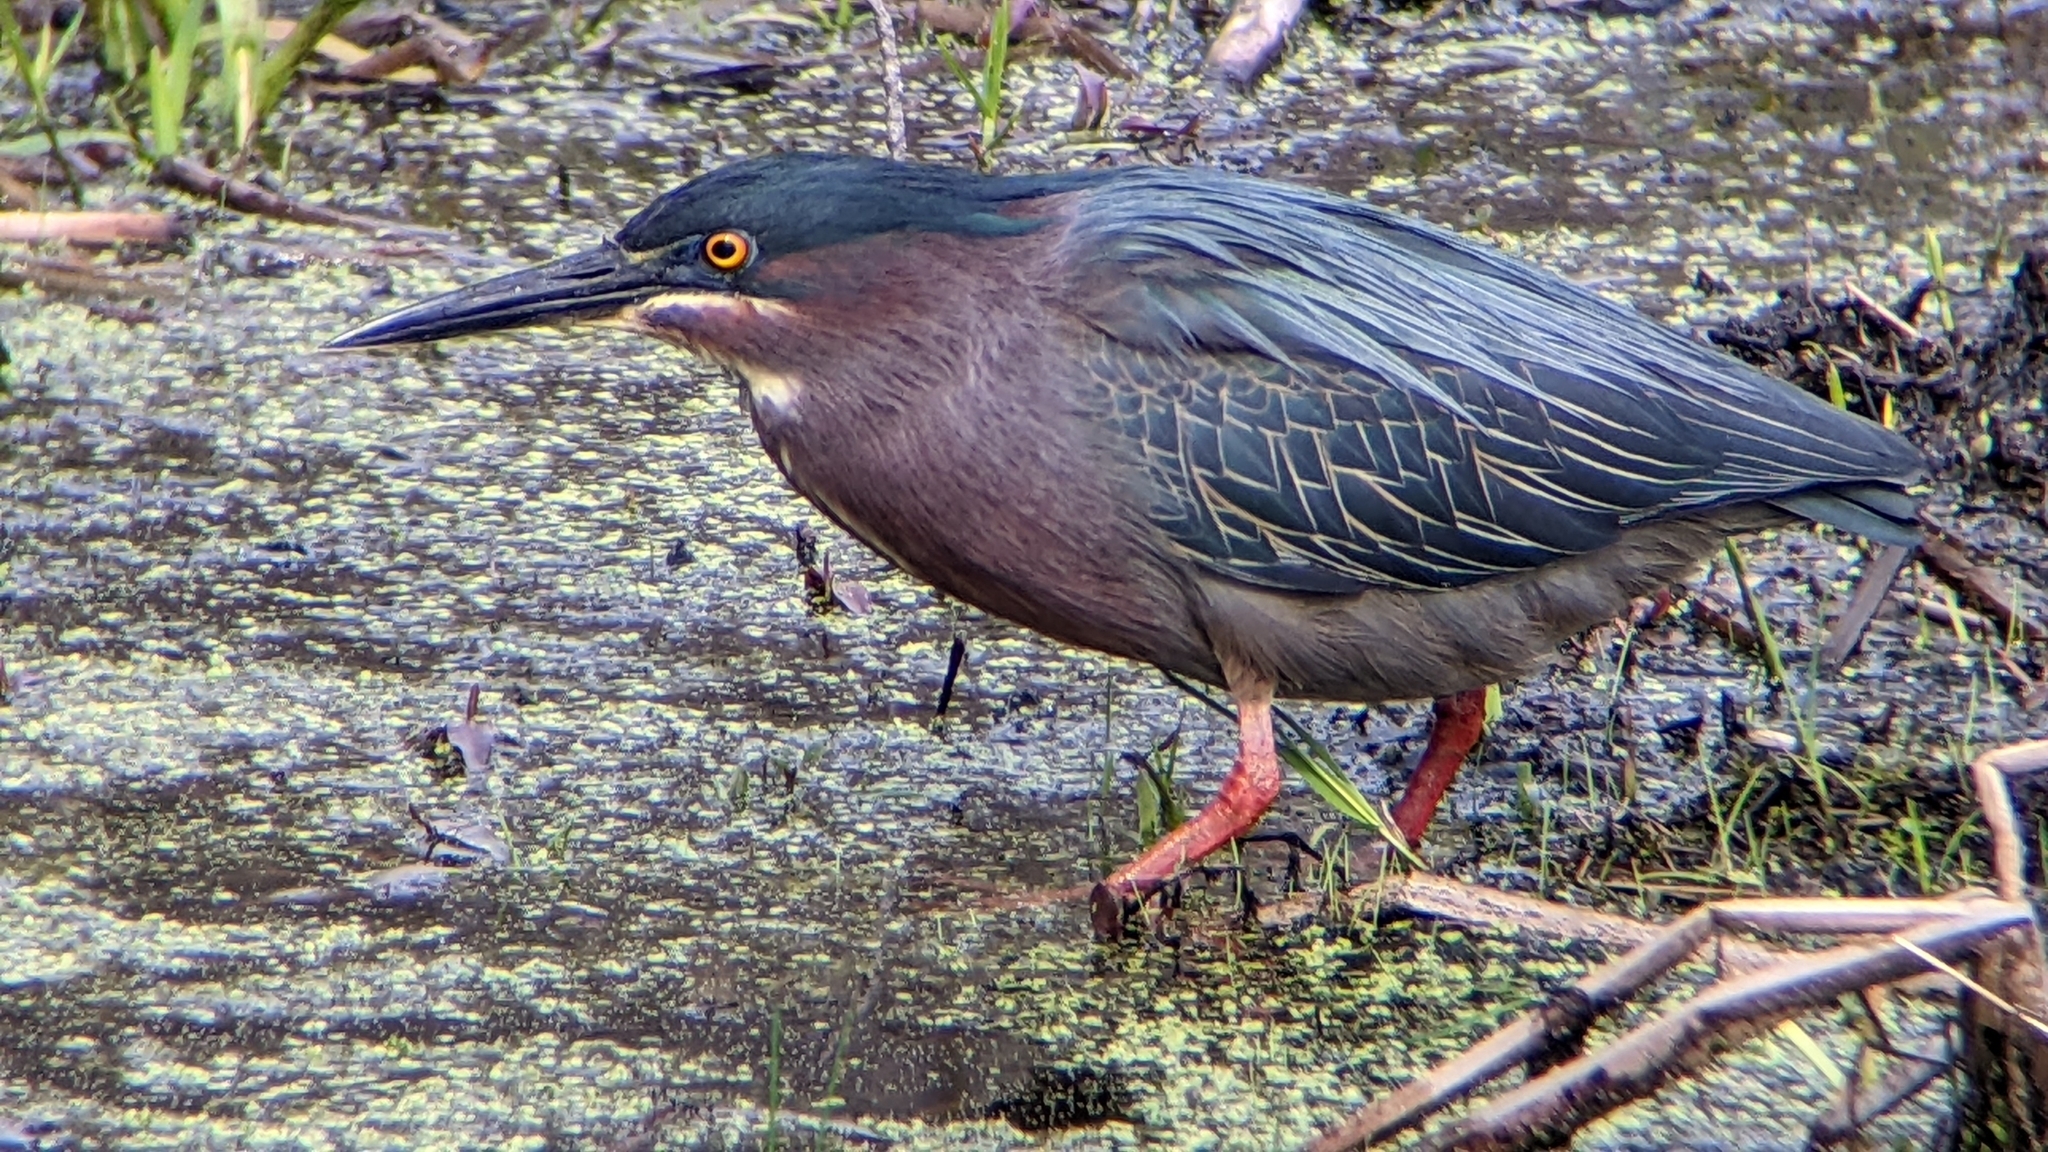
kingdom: Animalia
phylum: Chordata
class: Aves
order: Pelecaniformes
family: Ardeidae
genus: Butorides
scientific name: Butorides virescens
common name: Green heron
